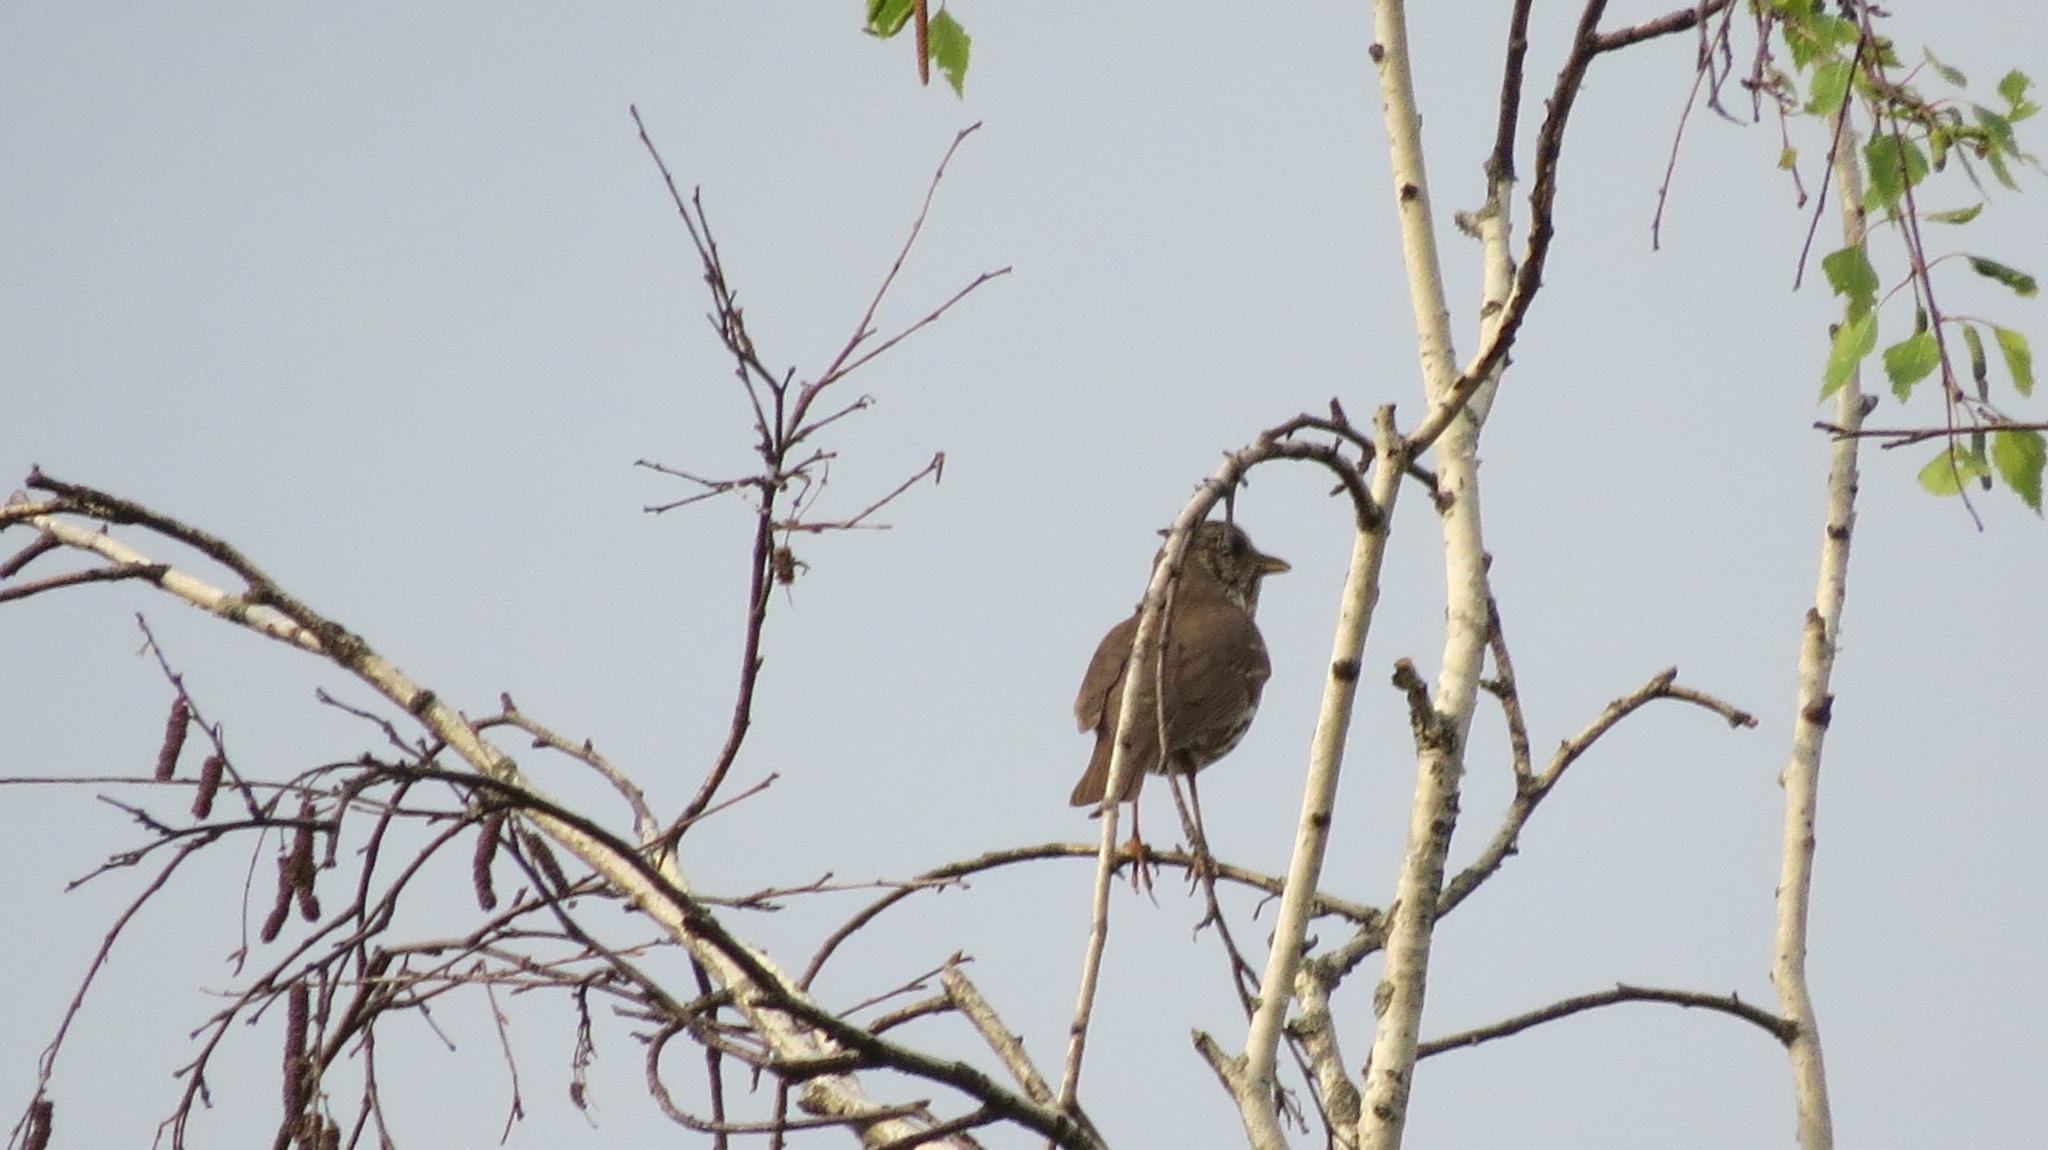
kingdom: Animalia
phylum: Chordata
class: Aves
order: Passeriformes
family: Turdidae
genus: Turdus
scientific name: Turdus philomelos
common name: Song thrush
